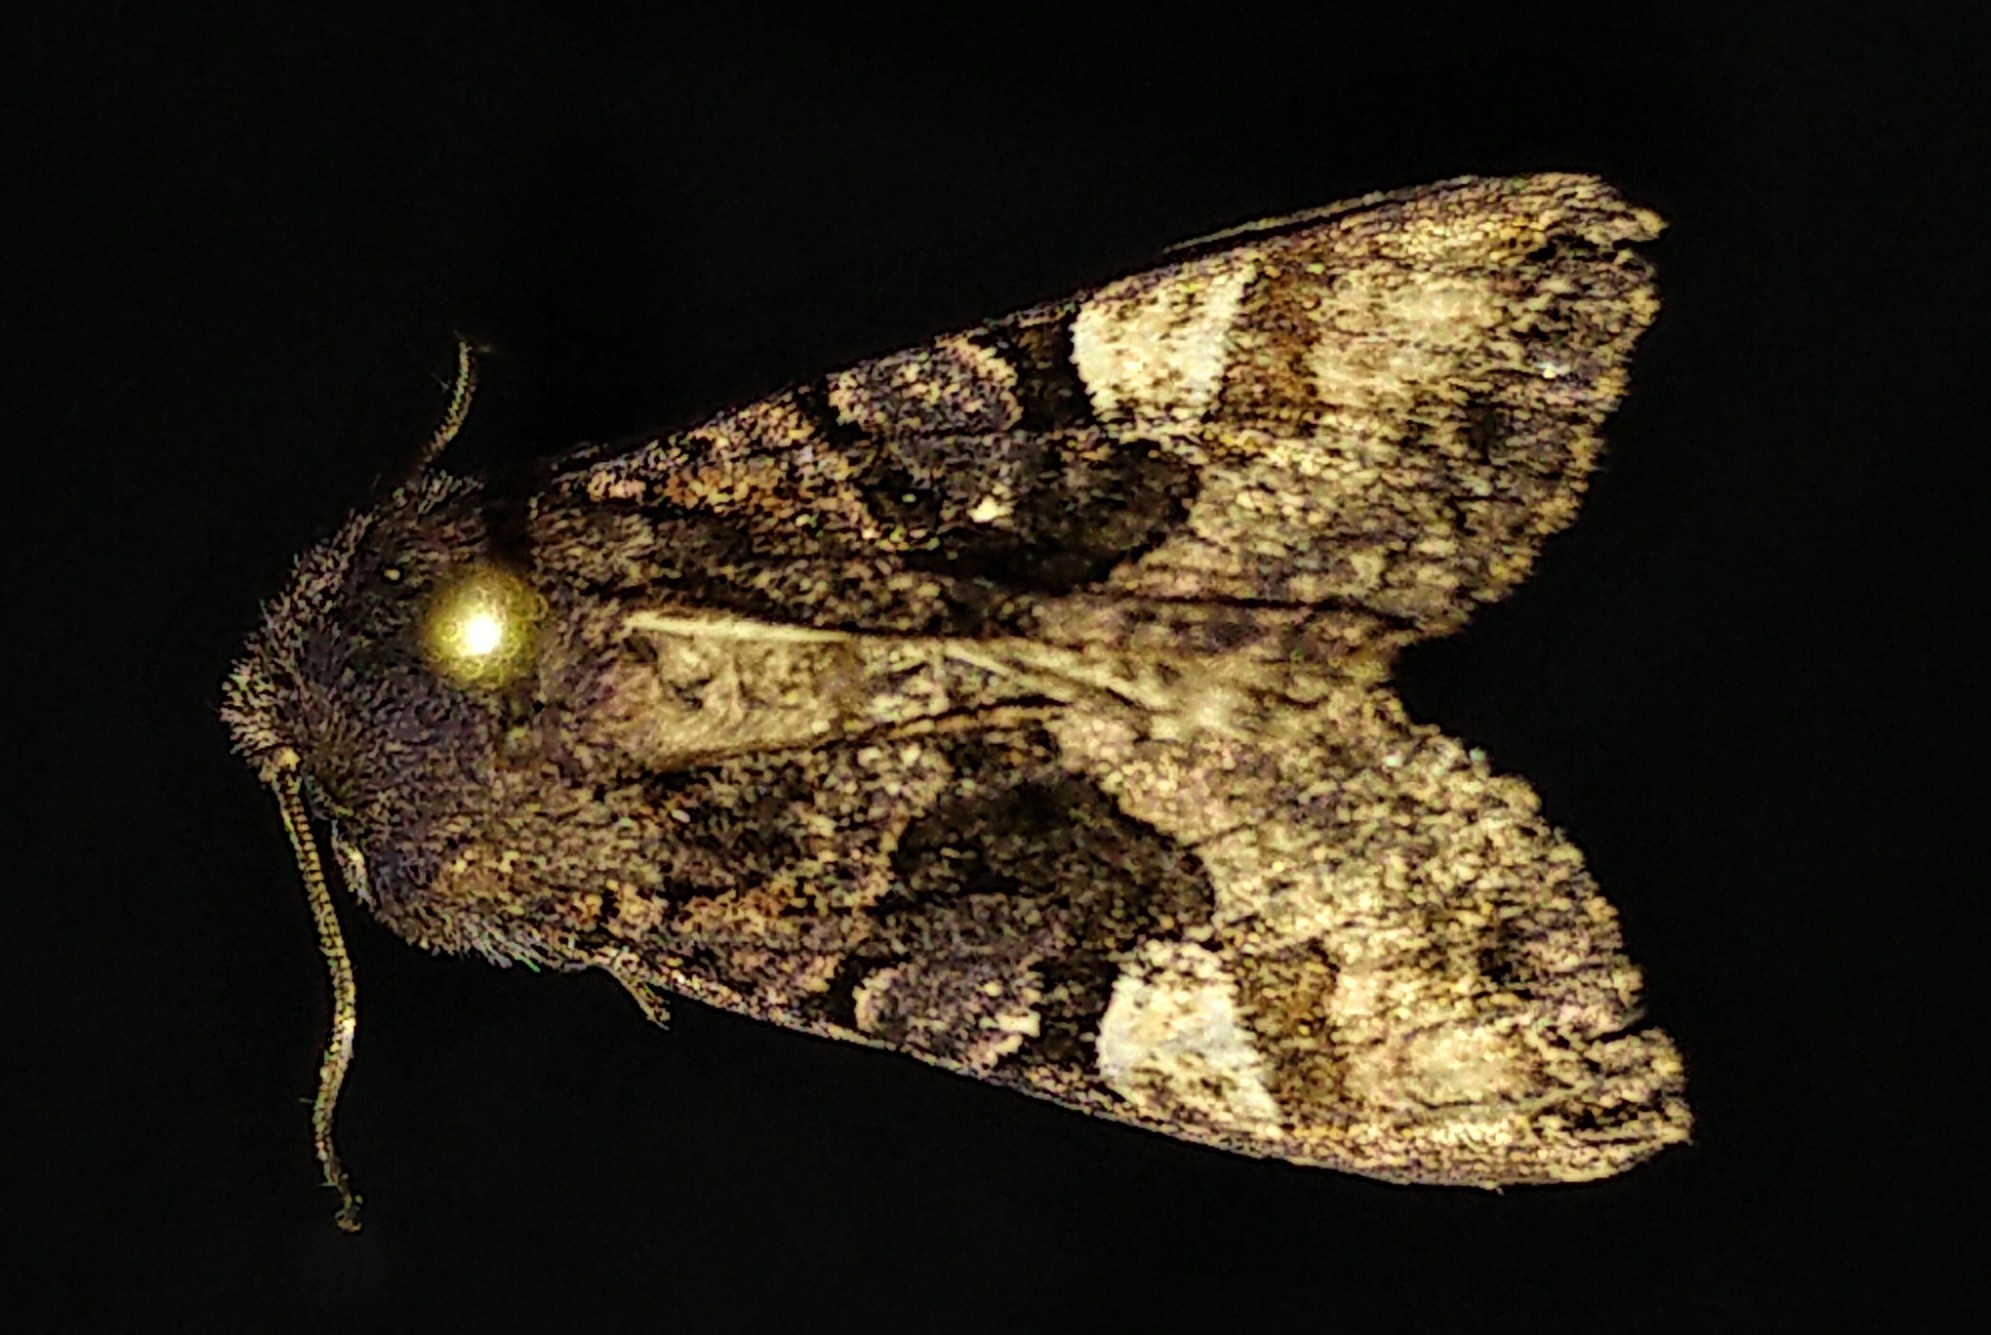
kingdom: Animalia
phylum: Arthropoda
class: Insecta
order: Lepidoptera
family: Noctuidae
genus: Euplexia
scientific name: Euplexia benesimilis
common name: American angle shades
